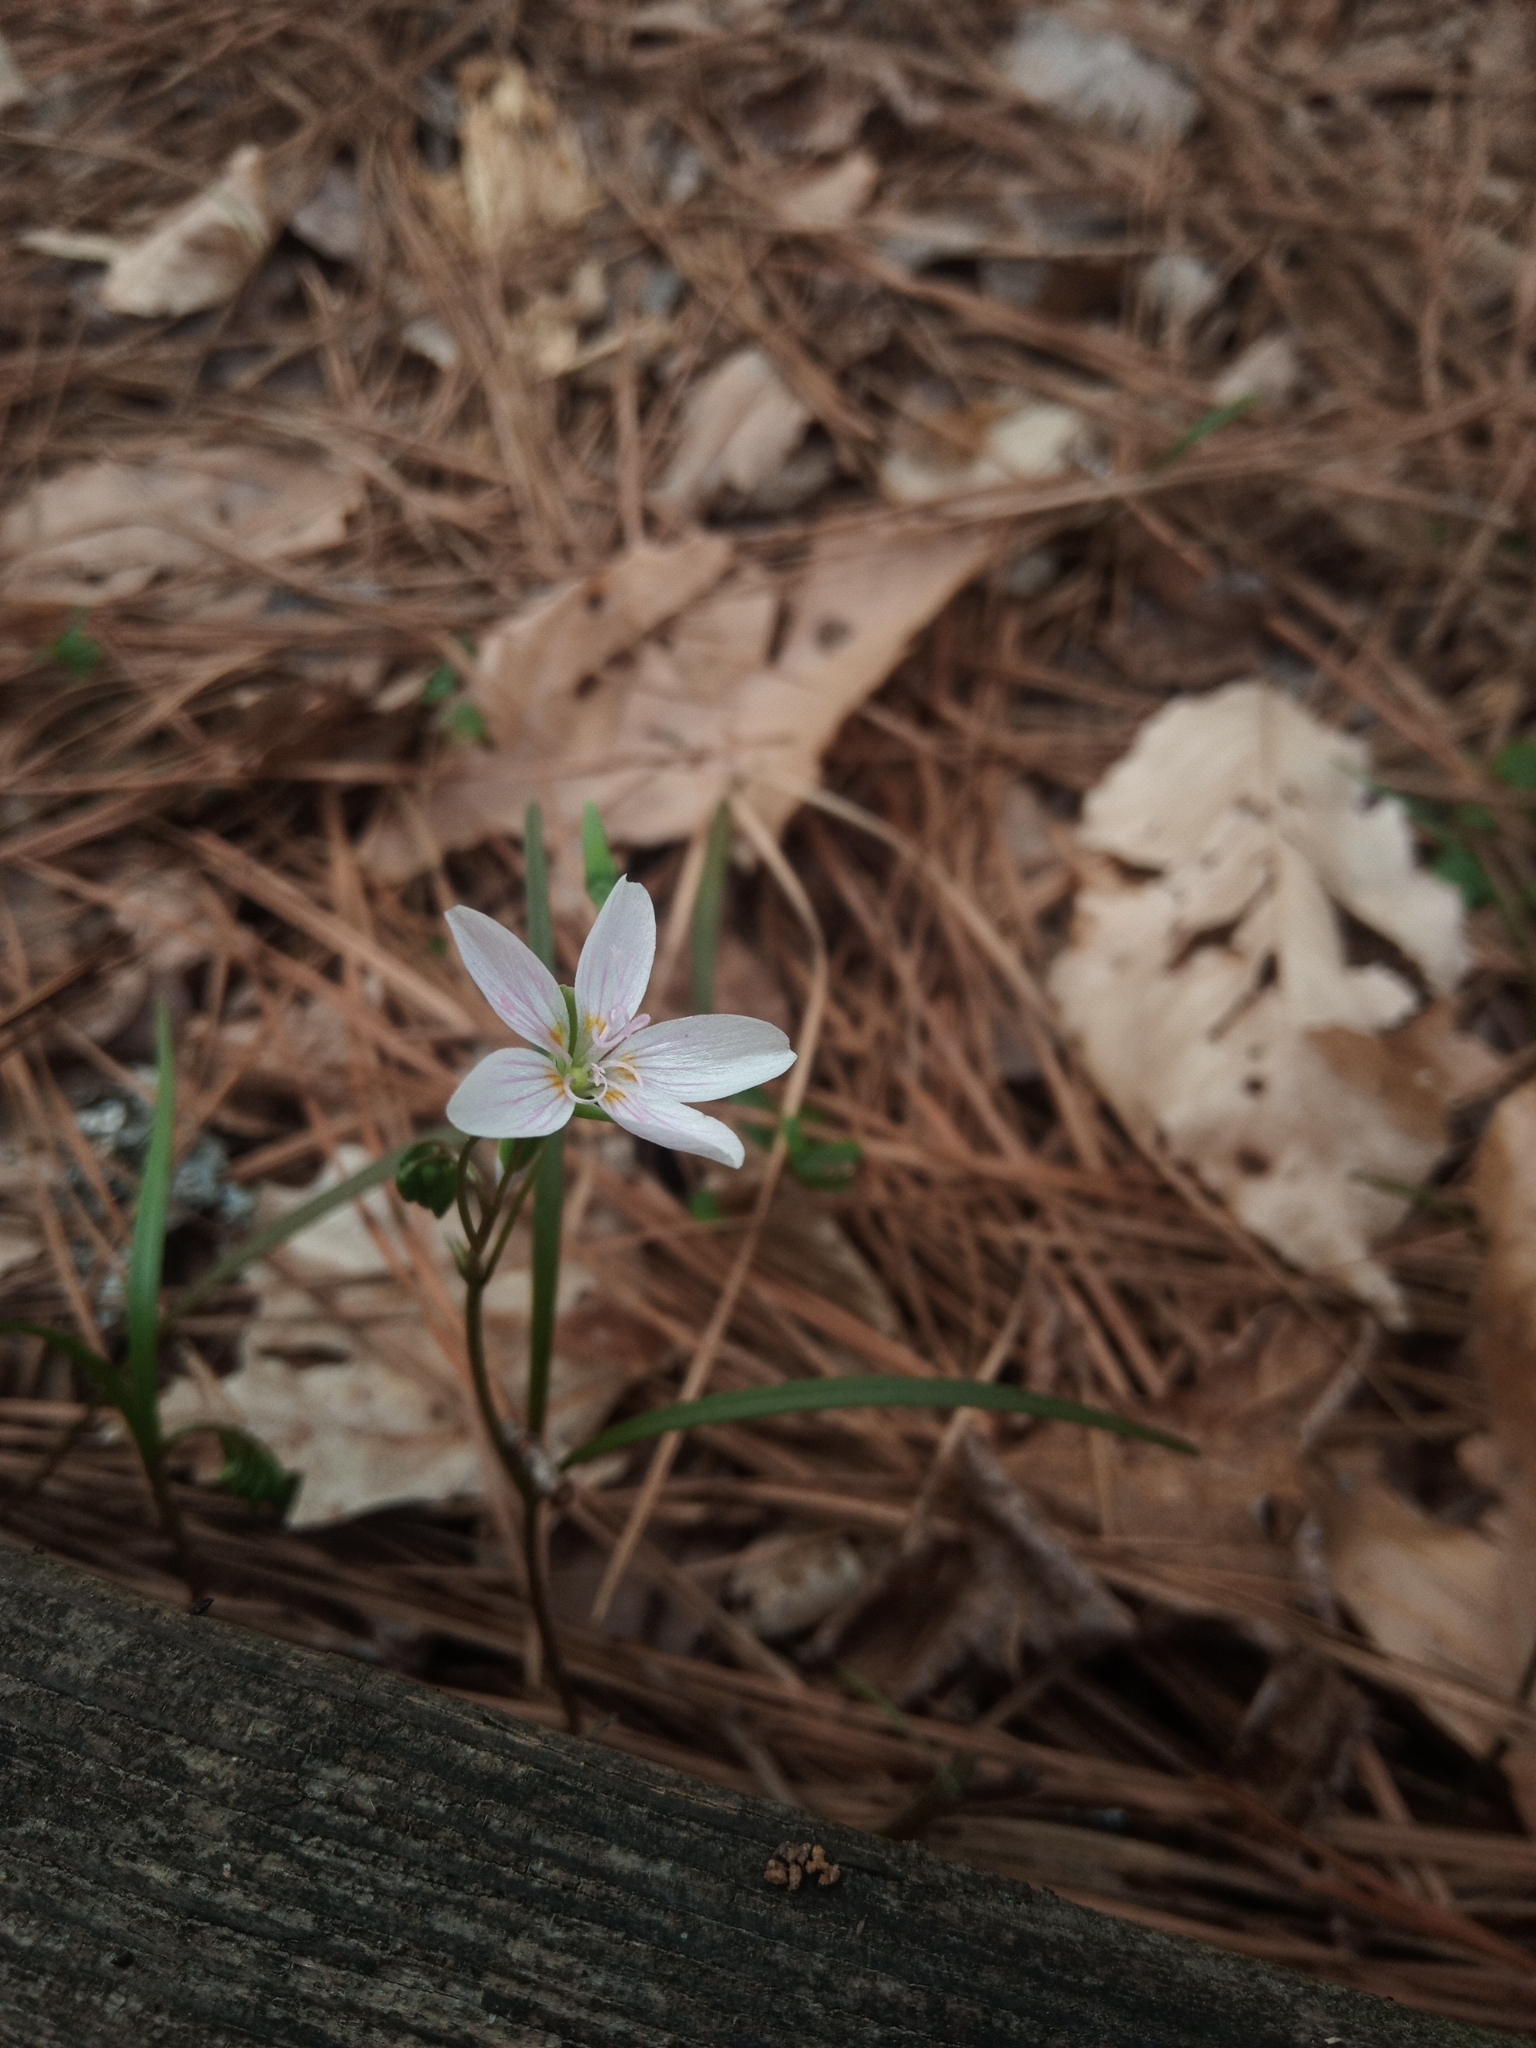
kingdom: Plantae
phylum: Tracheophyta
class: Magnoliopsida
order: Caryophyllales
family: Montiaceae
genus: Claytonia
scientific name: Claytonia virginica
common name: Virginia springbeauty
